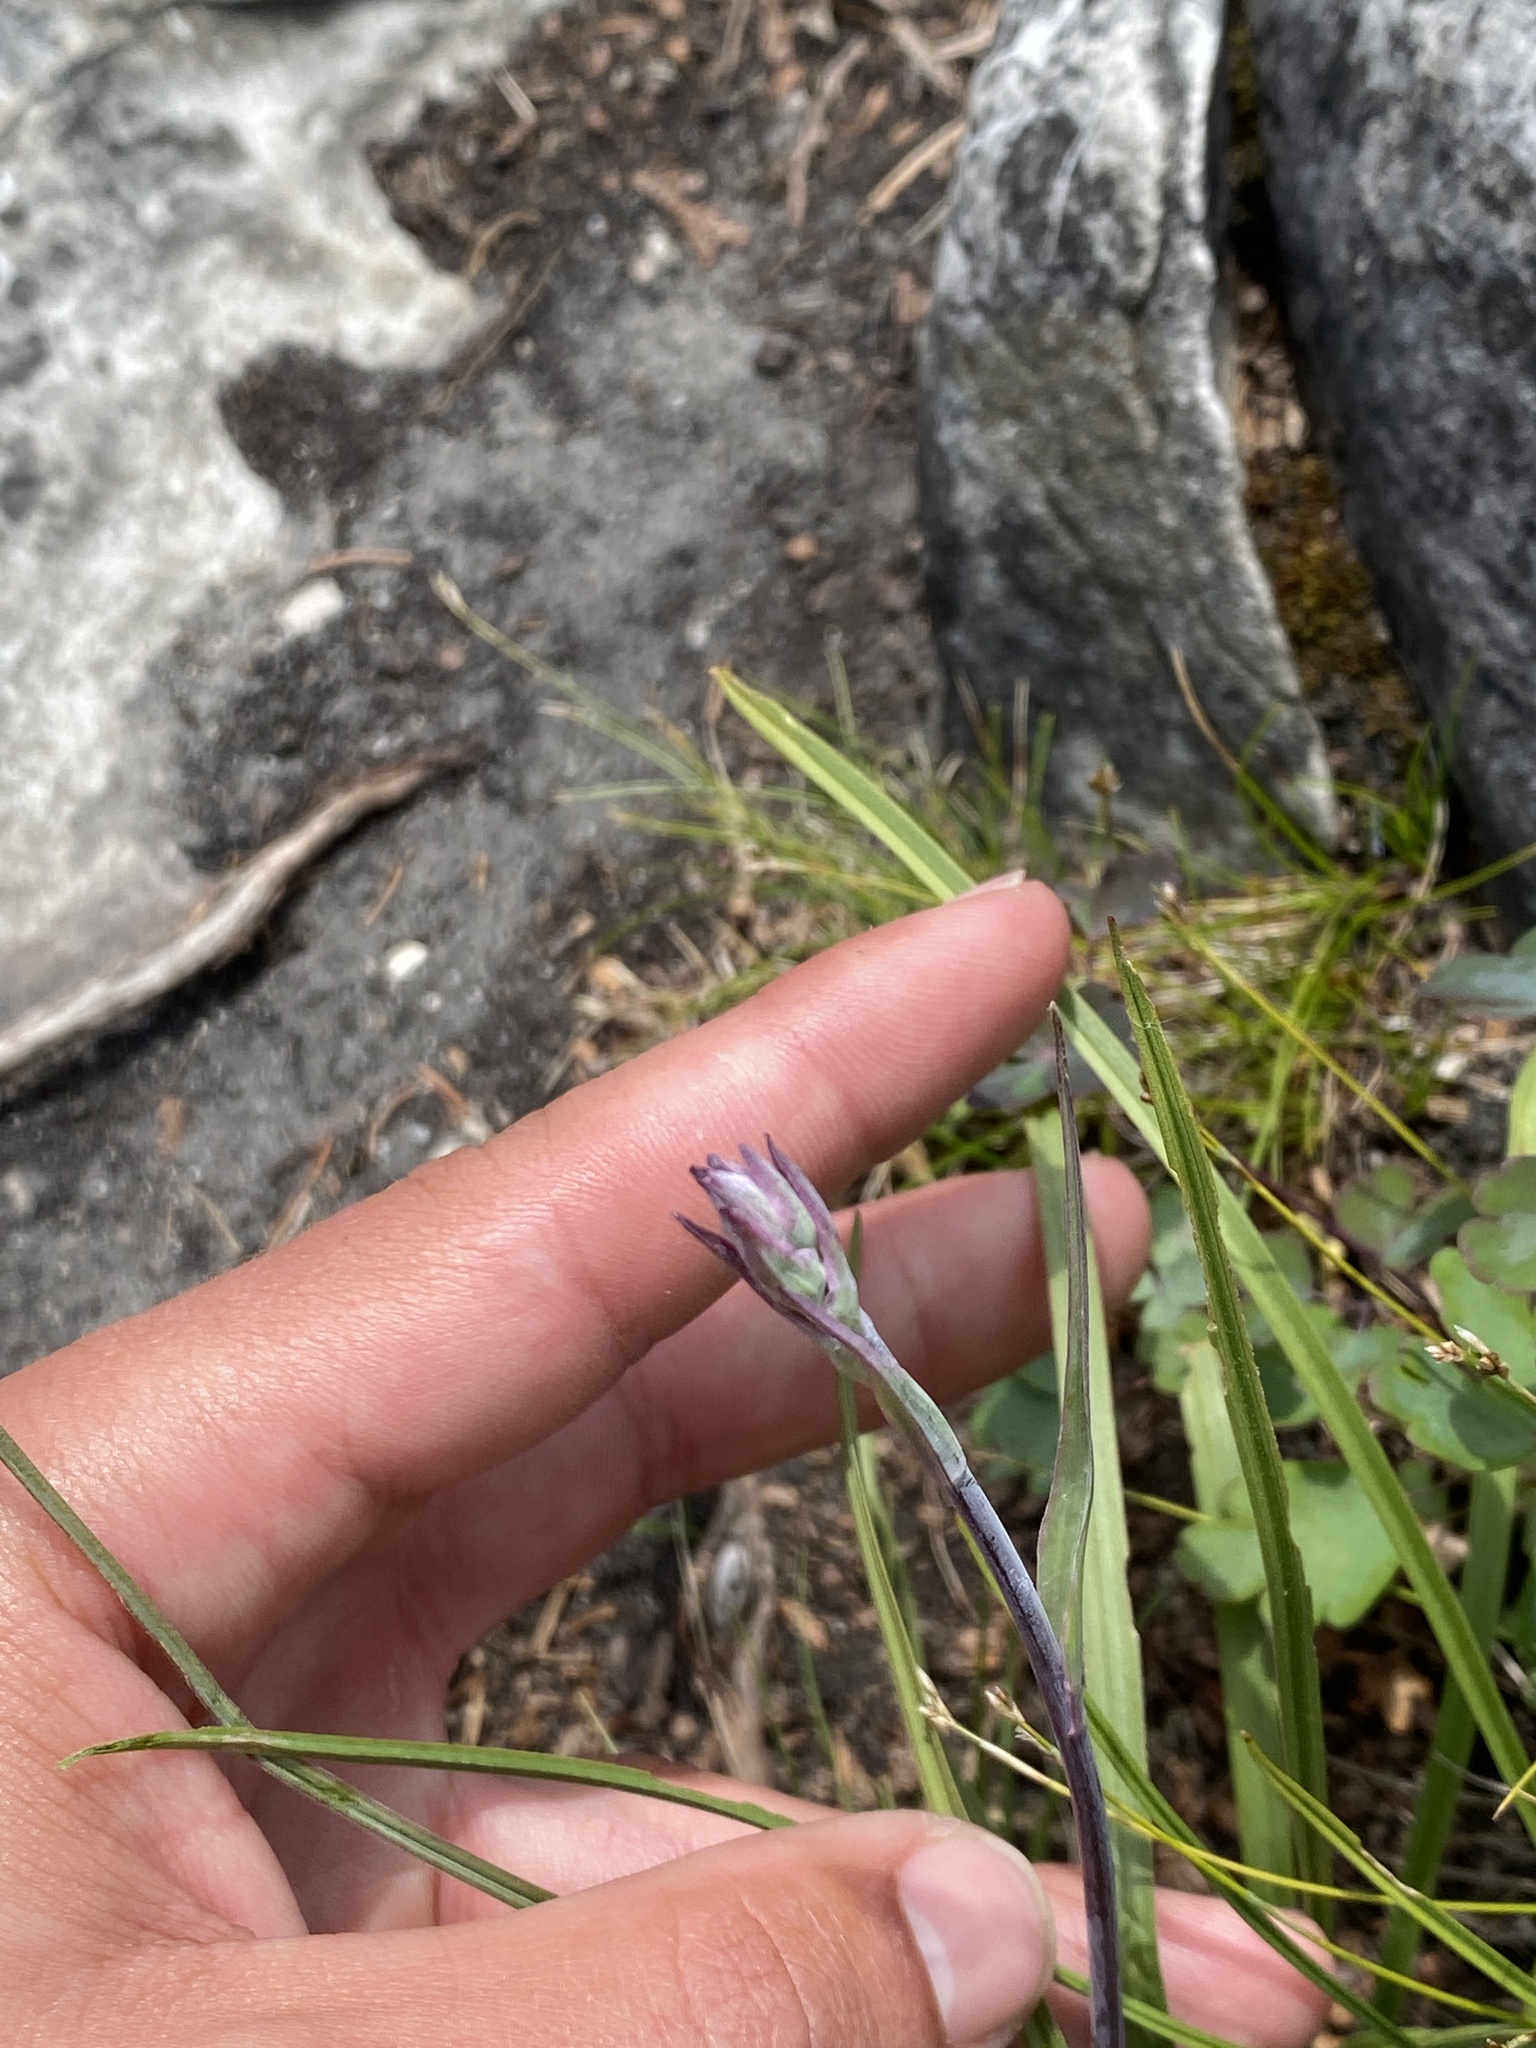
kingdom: Plantae
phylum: Tracheophyta
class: Liliopsida
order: Liliales
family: Melanthiaceae
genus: Anticlea
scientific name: Anticlea elegans
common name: Mountain death camas
